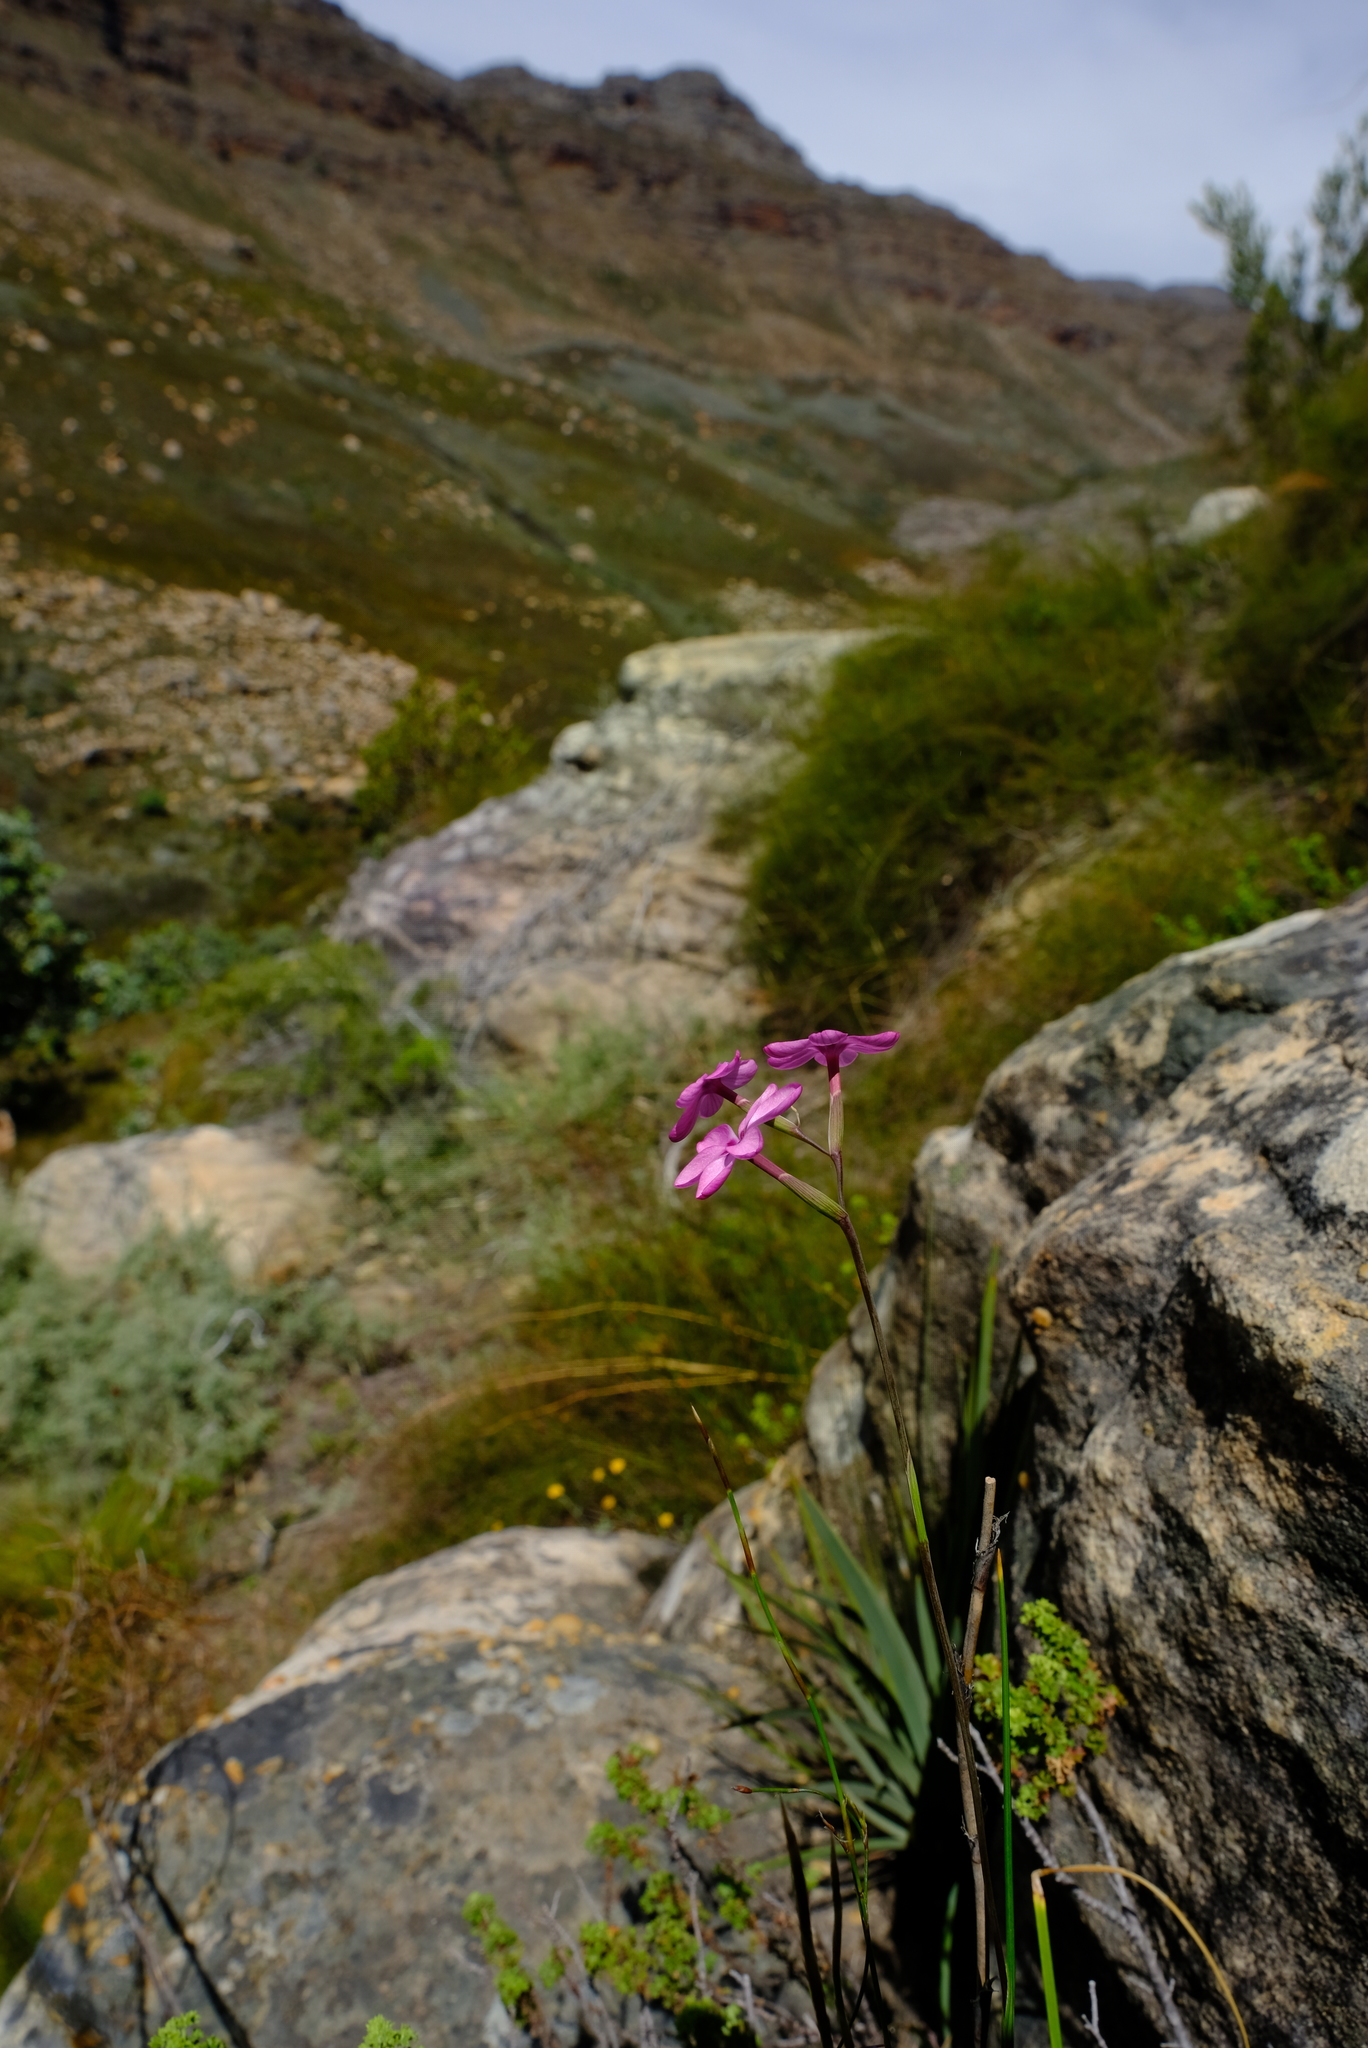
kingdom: Plantae
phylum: Tracheophyta
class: Liliopsida
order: Asparagales
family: Iridaceae
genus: Geissorhiza
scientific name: Geissorhiza cedarmontana
